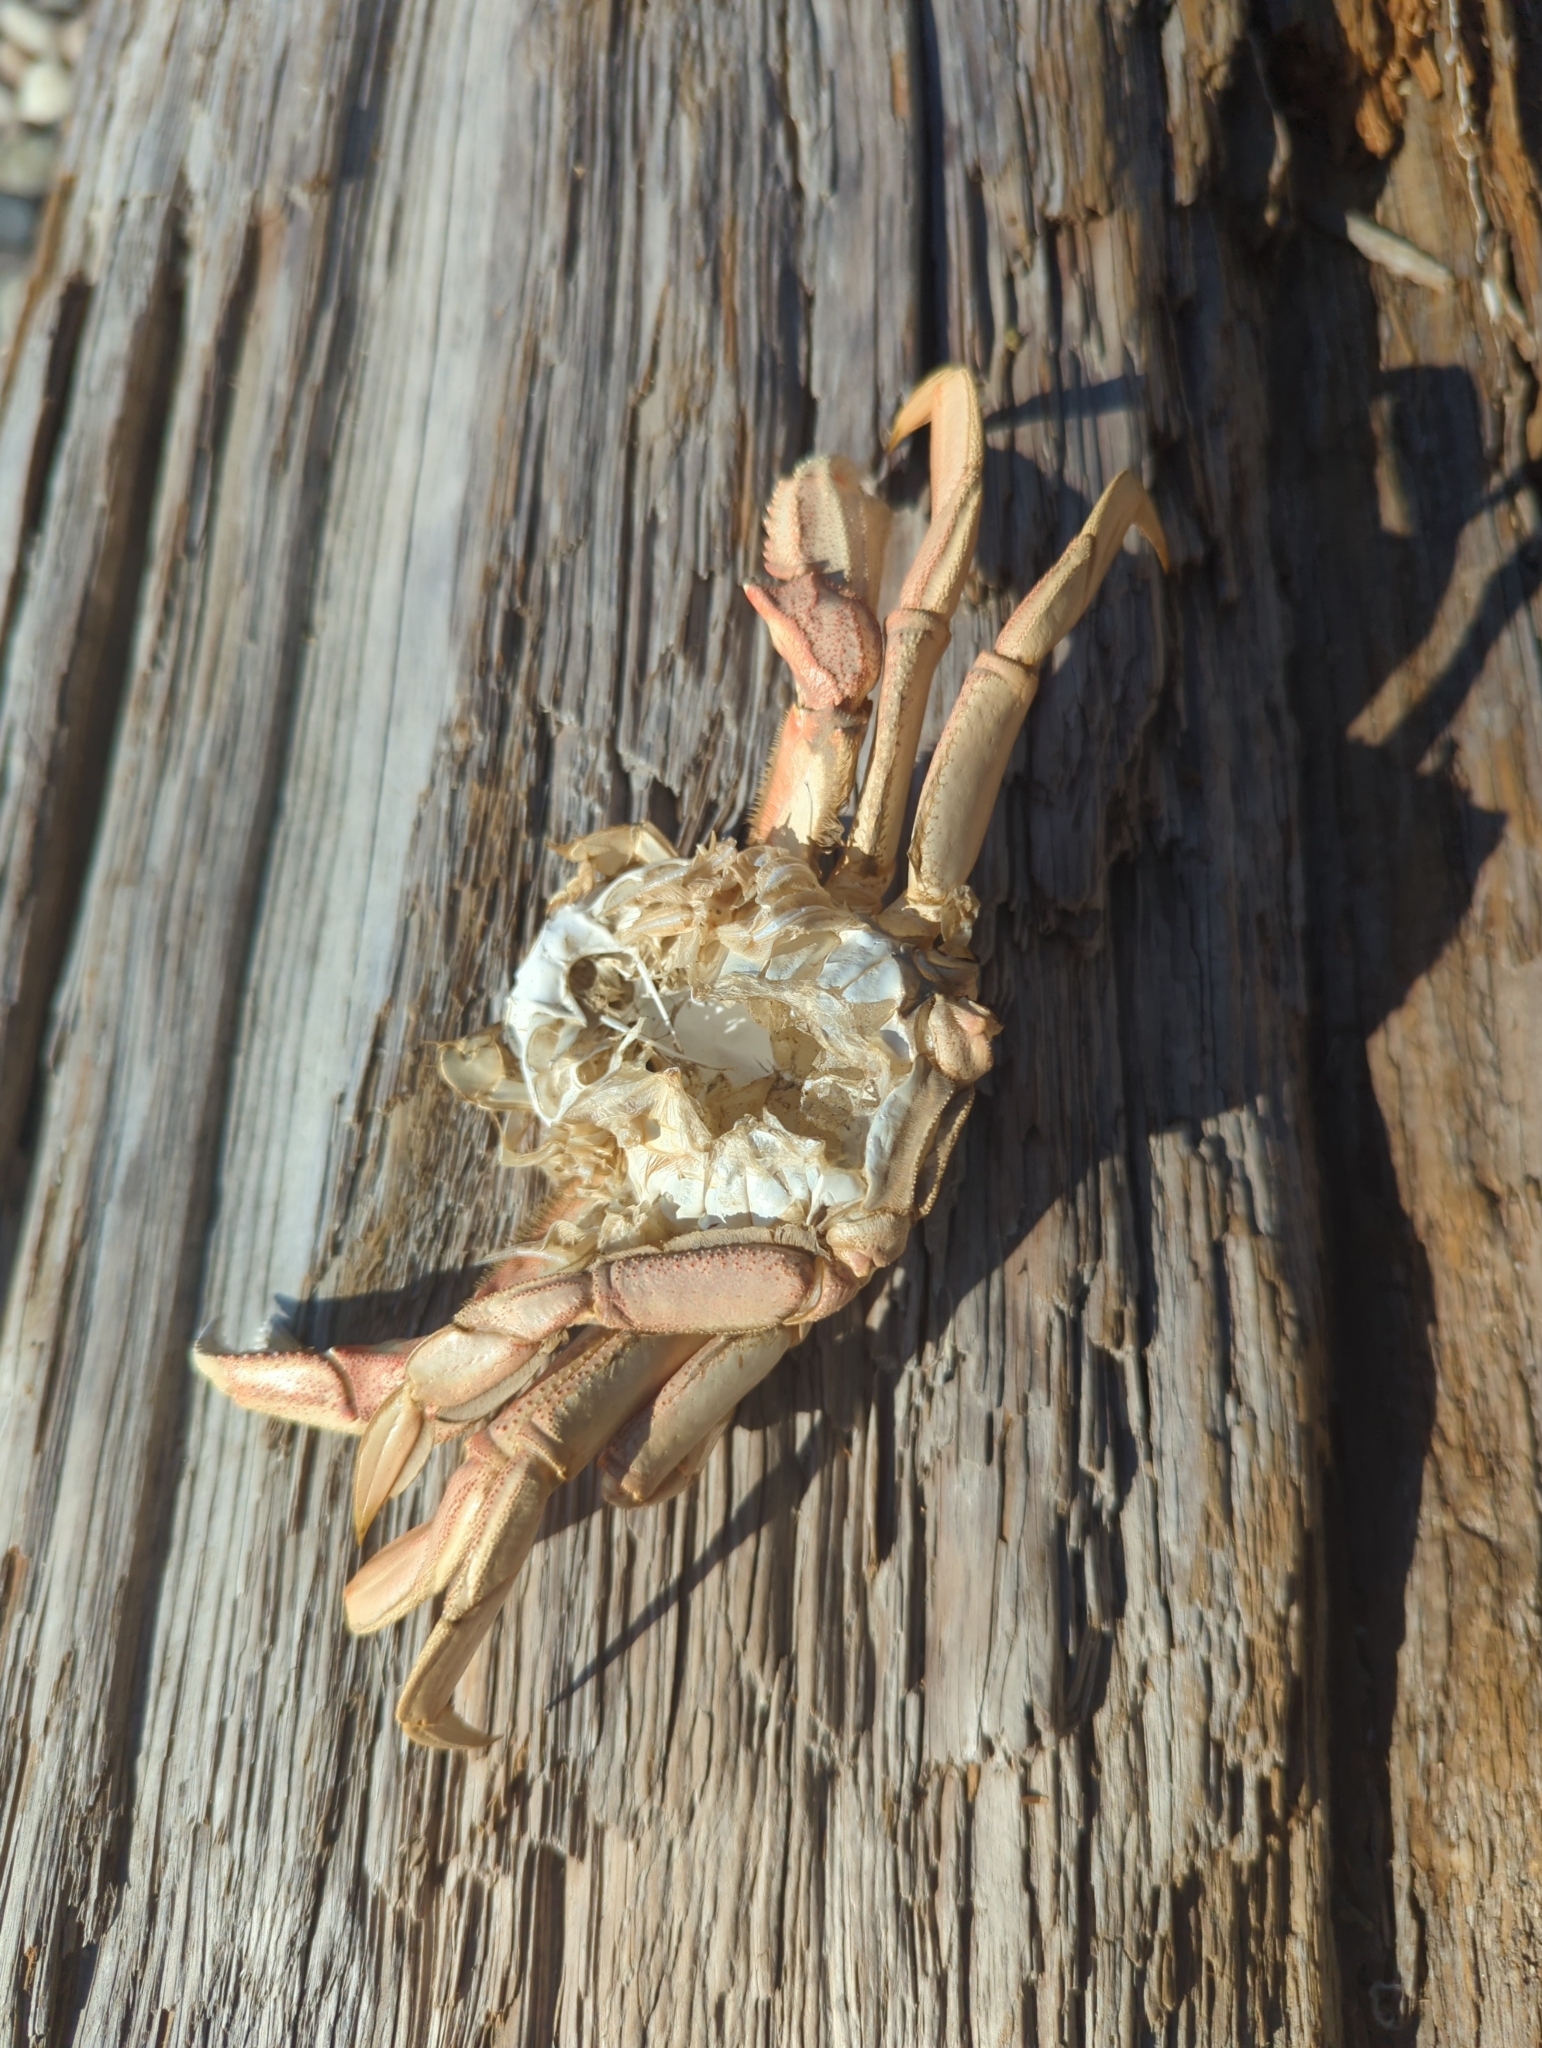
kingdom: Animalia
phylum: Arthropoda
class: Malacostraca
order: Decapoda
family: Cancridae
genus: Metacarcinus
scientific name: Metacarcinus magister
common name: Californian crab
